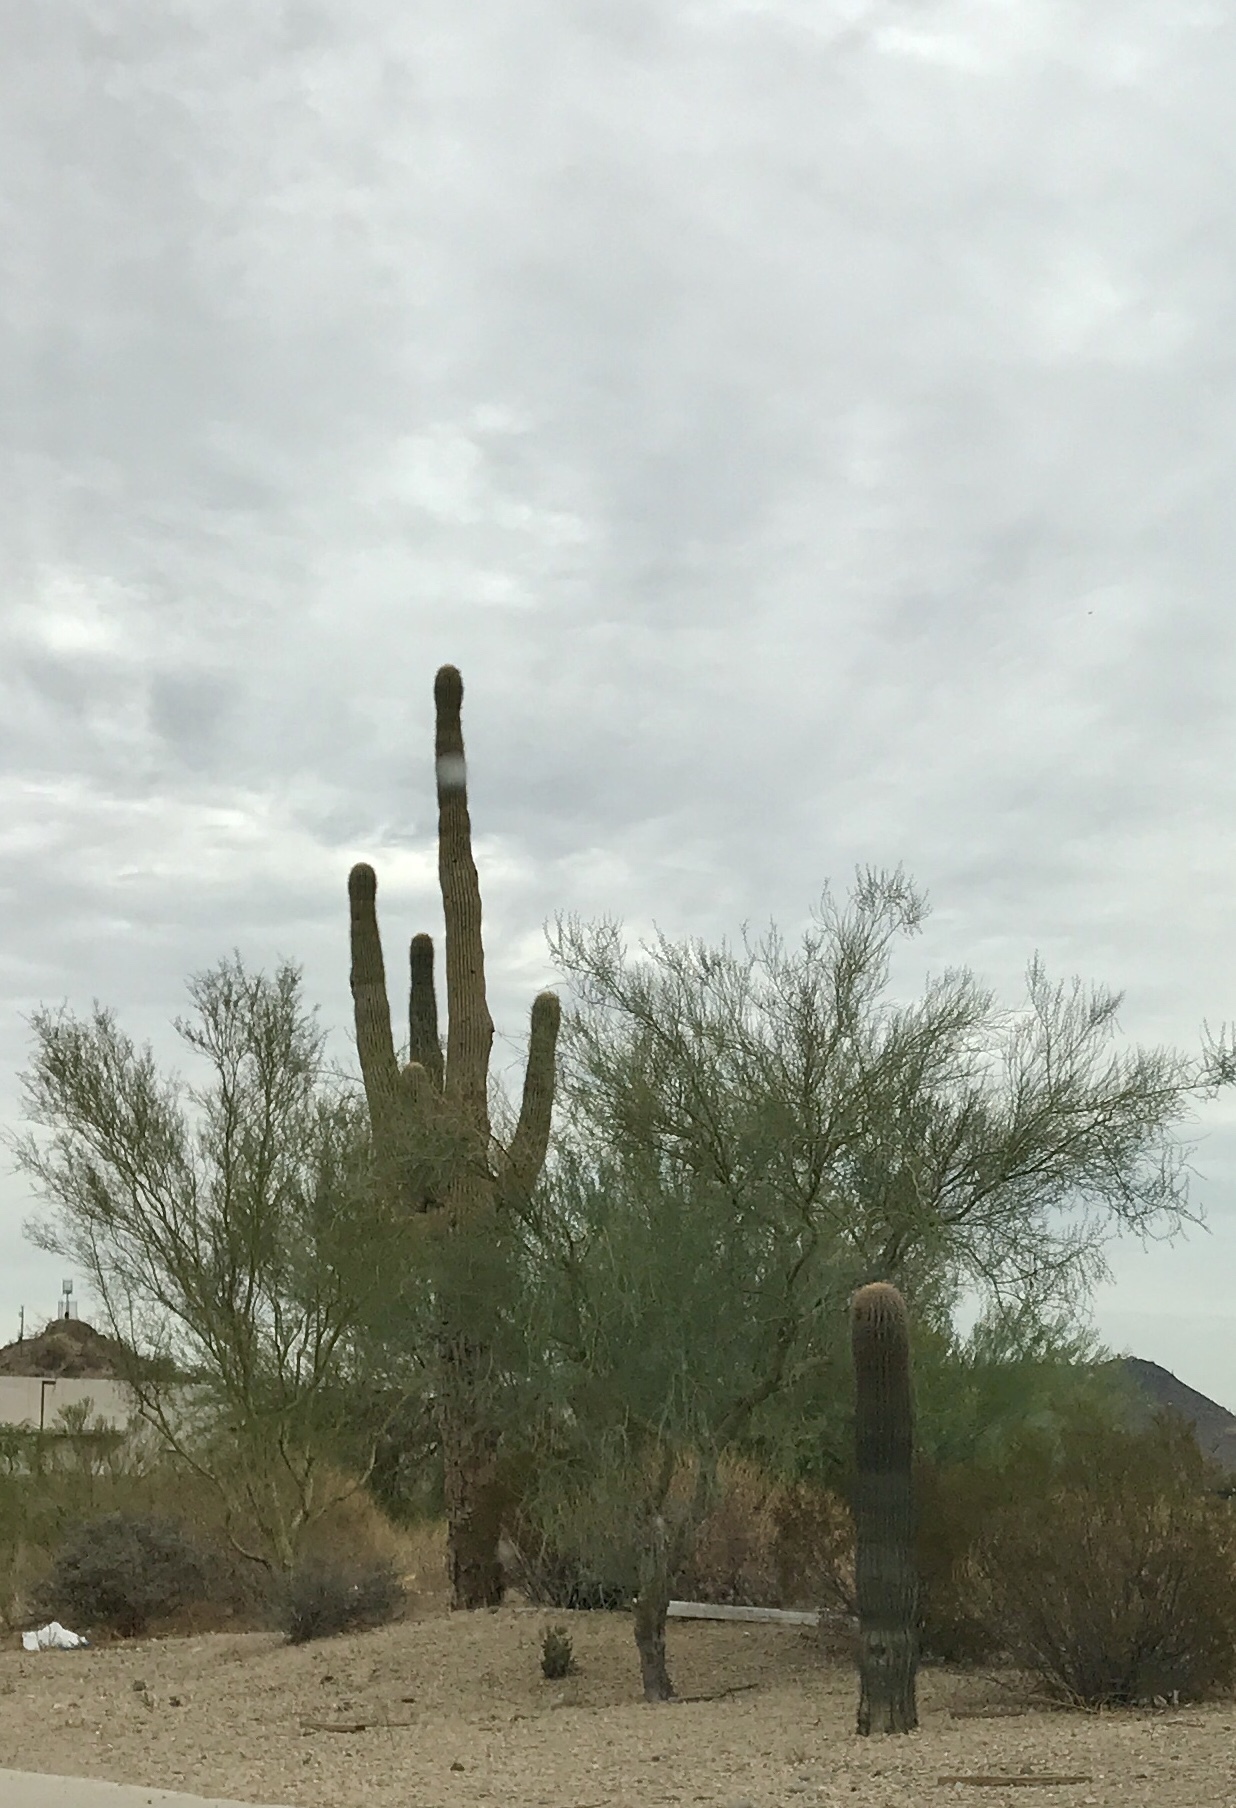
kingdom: Plantae
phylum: Tracheophyta
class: Magnoliopsida
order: Caryophyllales
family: Cactaceae
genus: Carnegiea
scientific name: Carnegiea gigantea
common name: Saguaro
